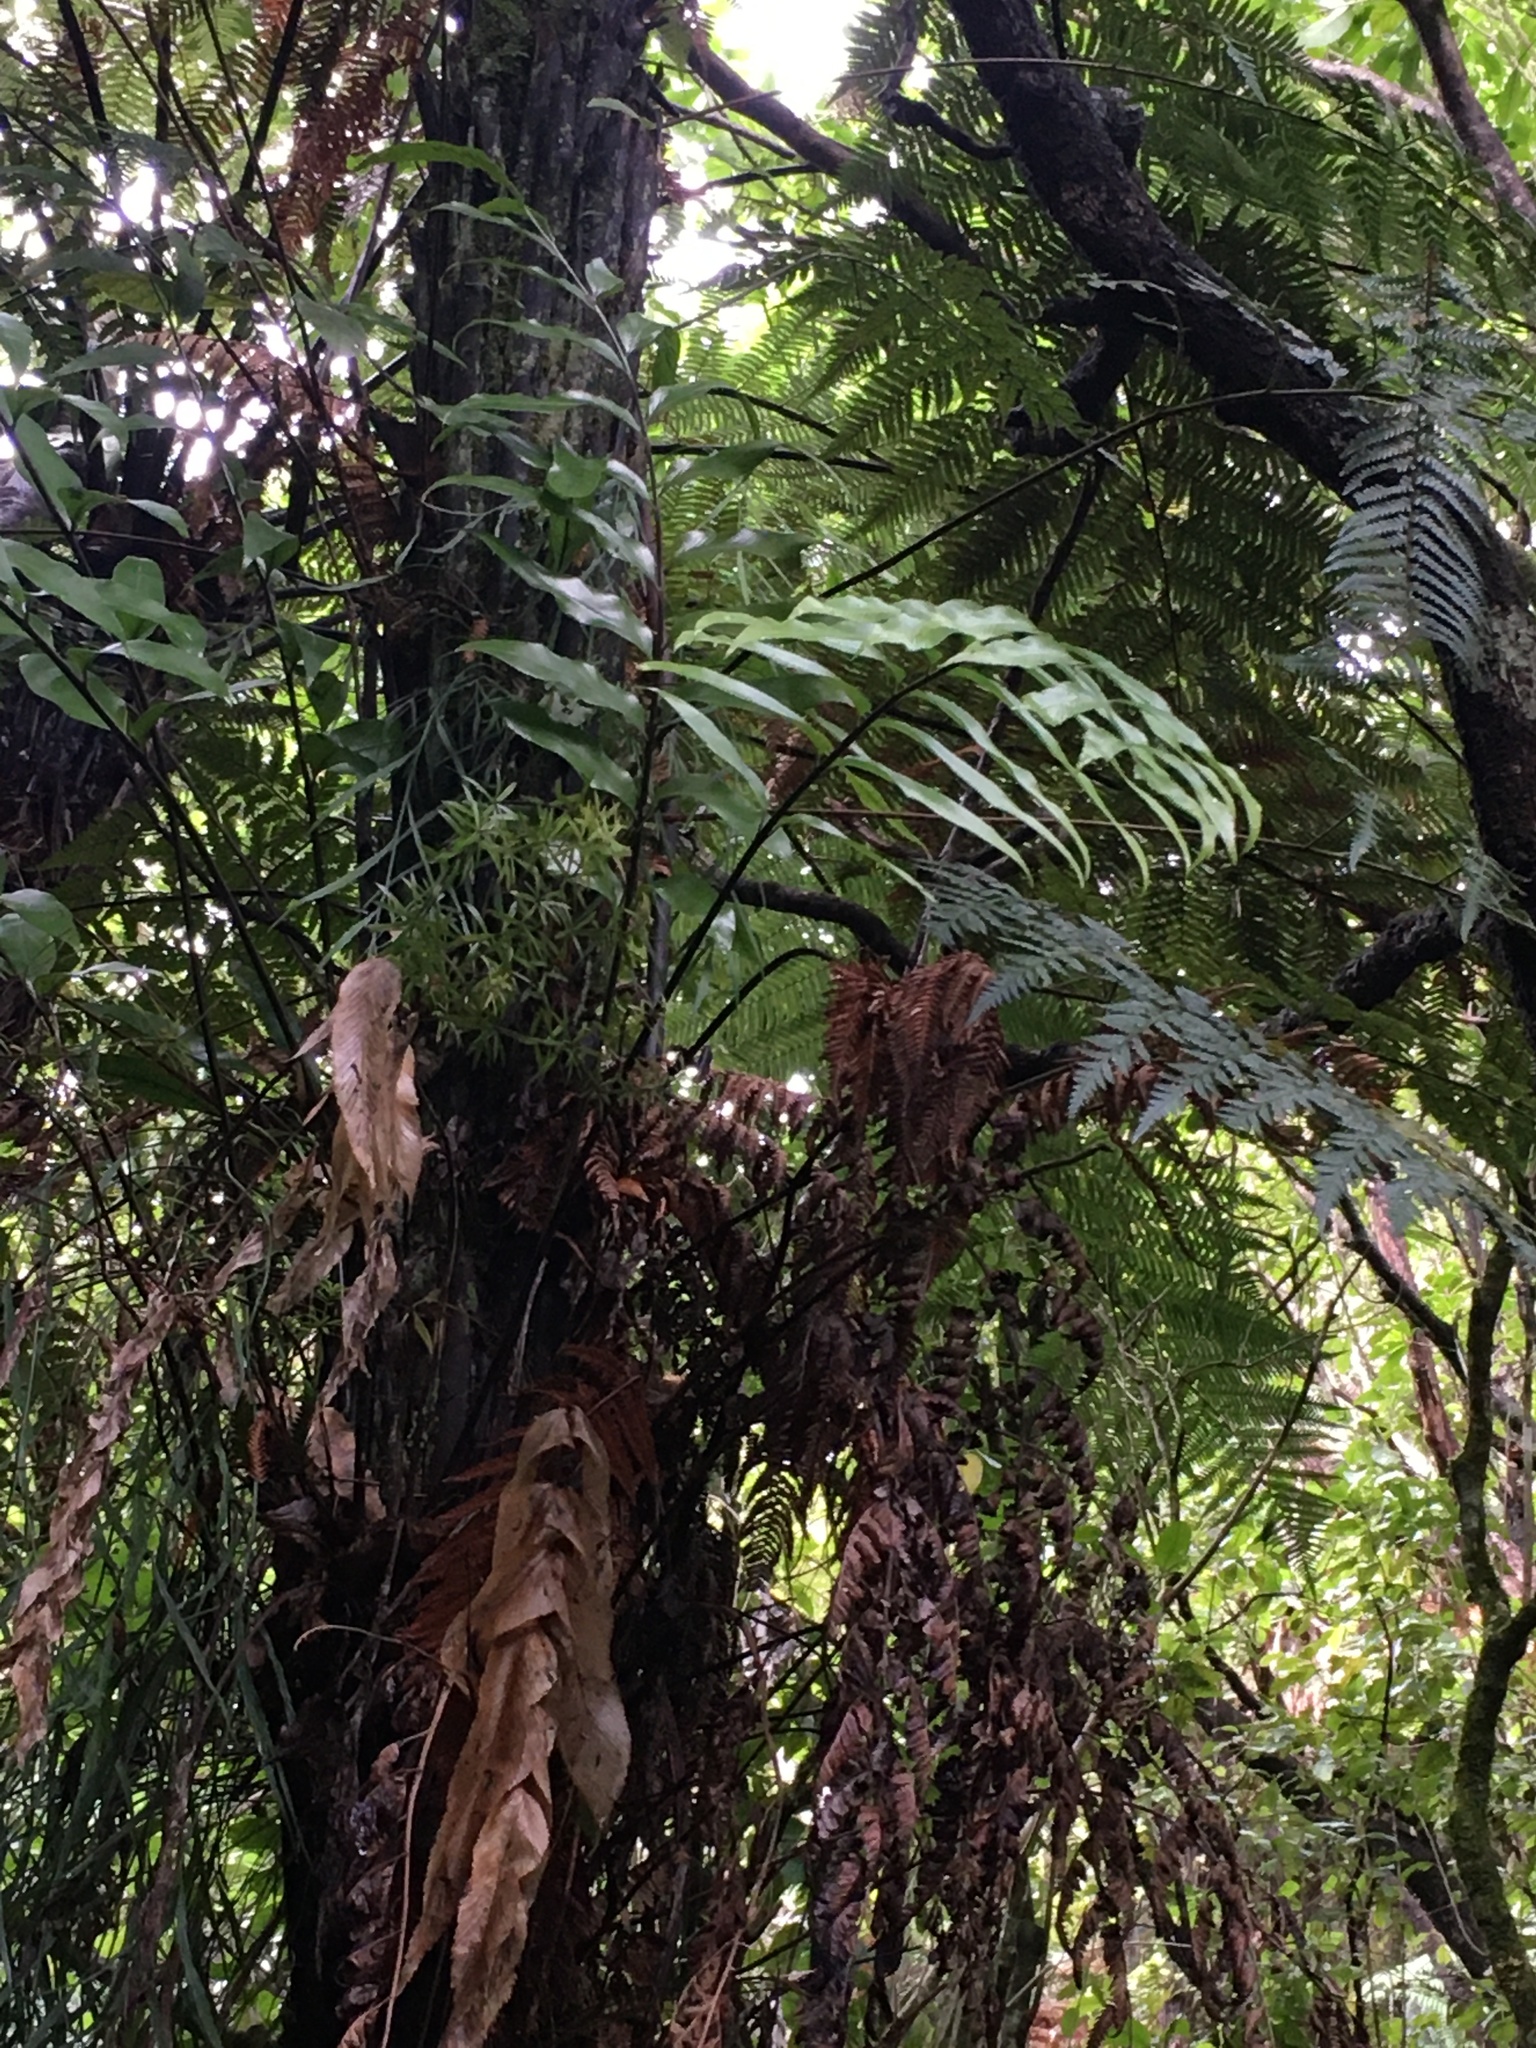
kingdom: Plantae
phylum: Tracheophyta
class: Polypodiopsida
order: Polypodiales
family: Aspleniaceae
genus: Asplenium
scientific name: Asplenium oblongifolium
